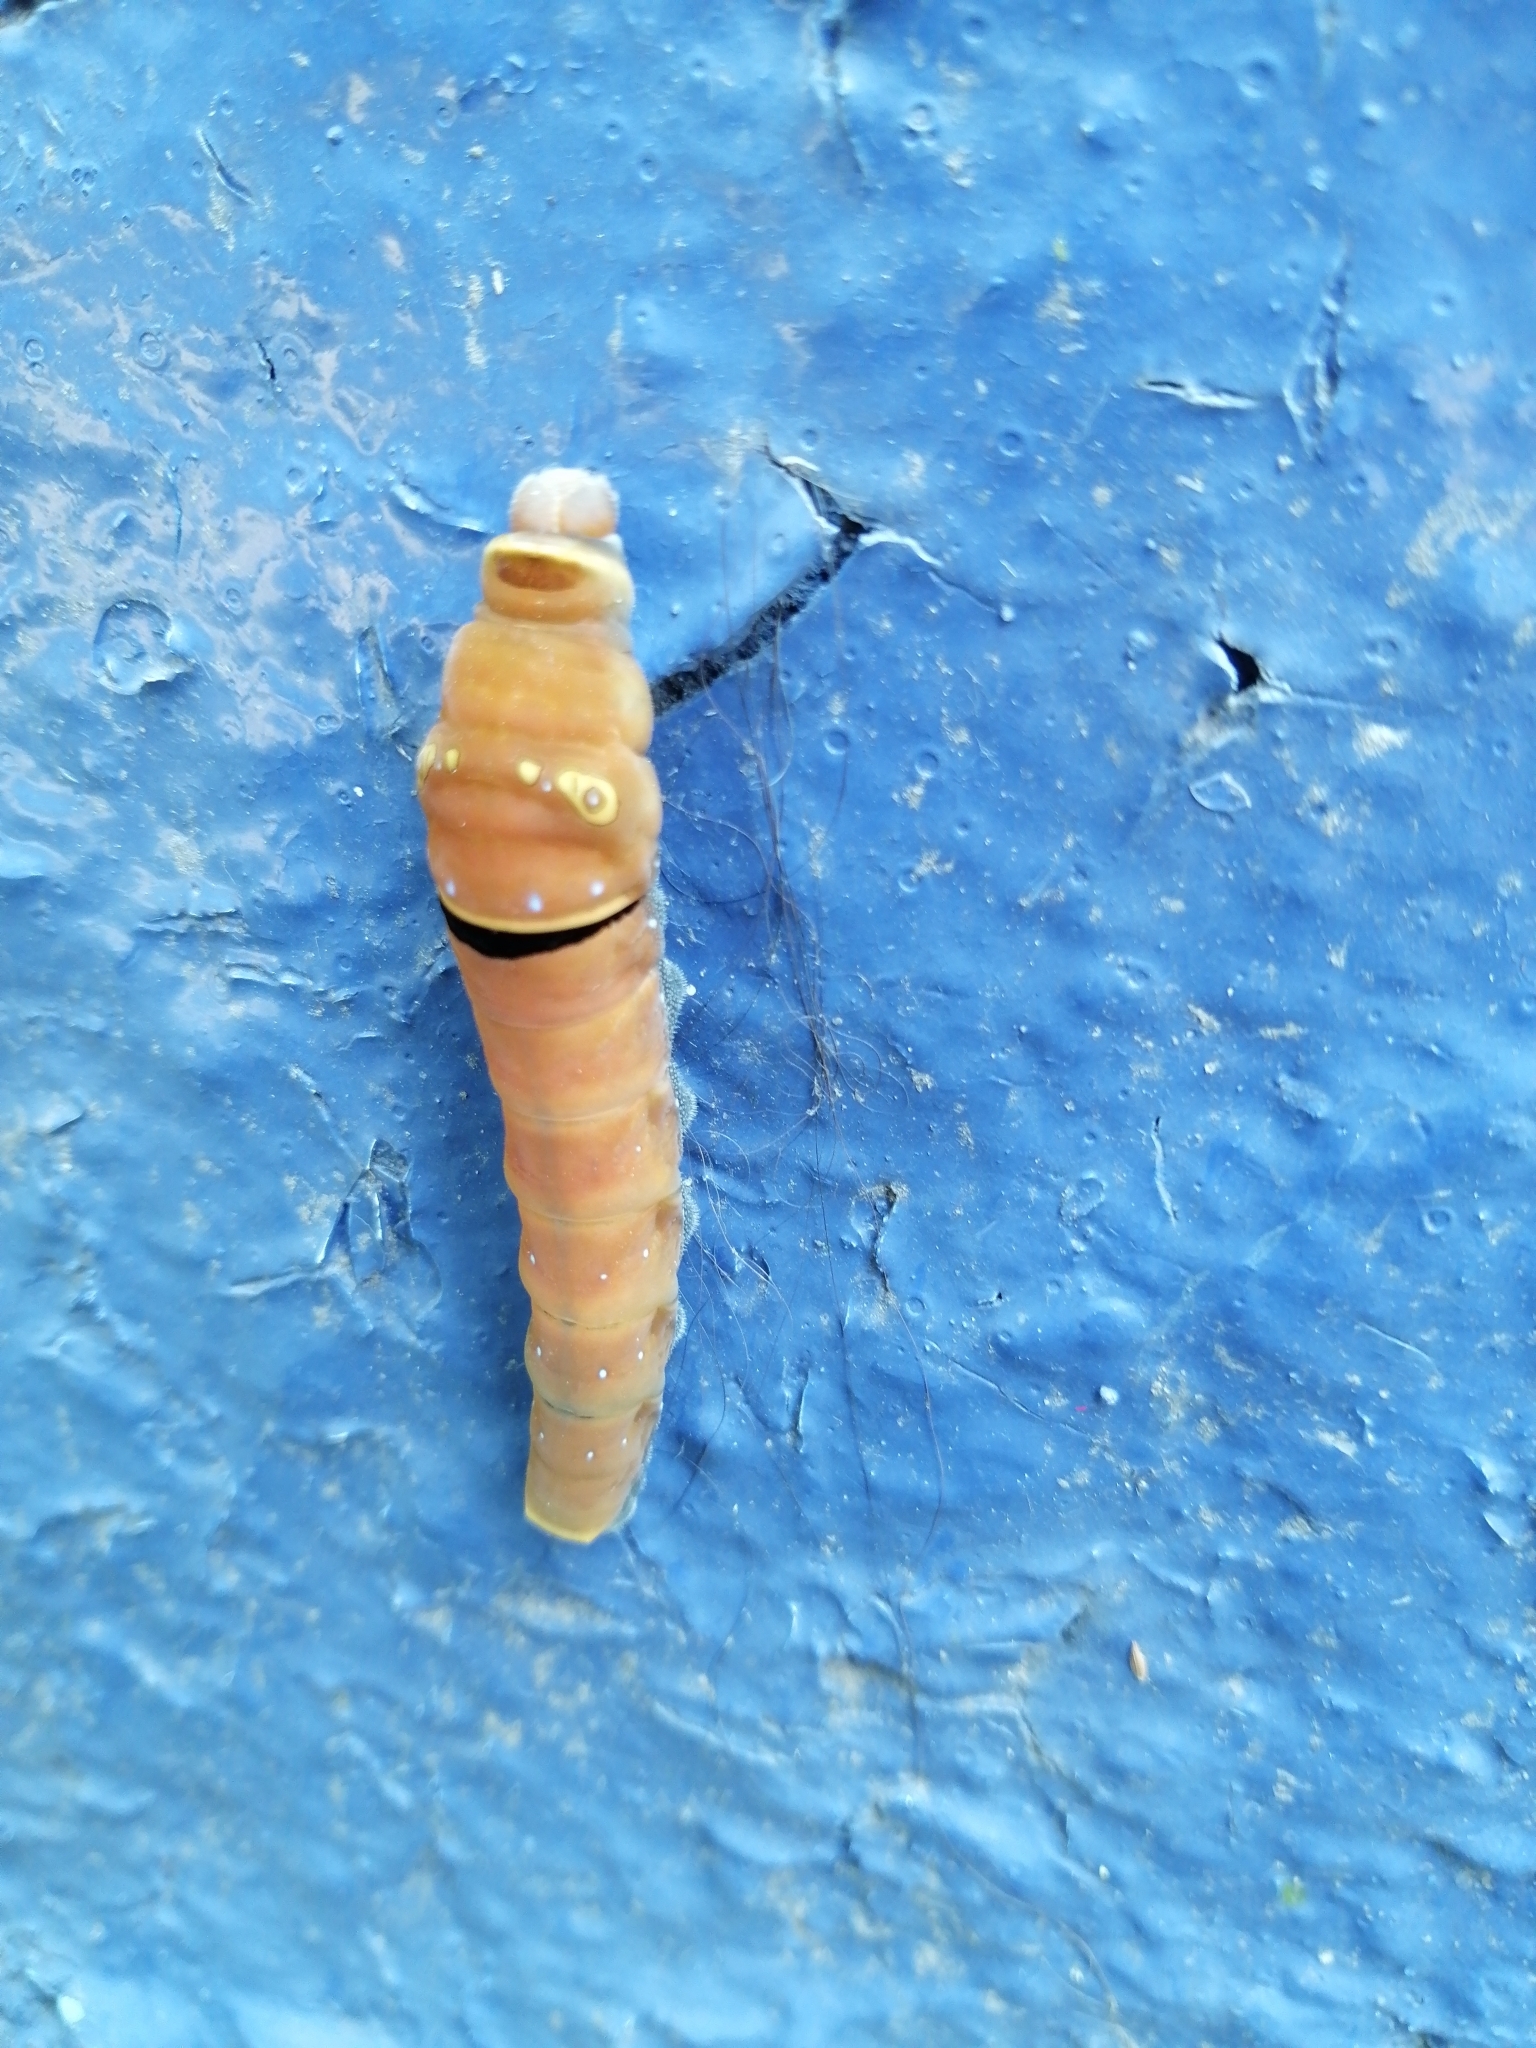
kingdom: Animalia
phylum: Arthropoda
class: Insecta
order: Lepidoptera
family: Papilionidae
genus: Papilio
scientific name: Papilio multicaudata
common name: Two-tailed tiger swallowtail
